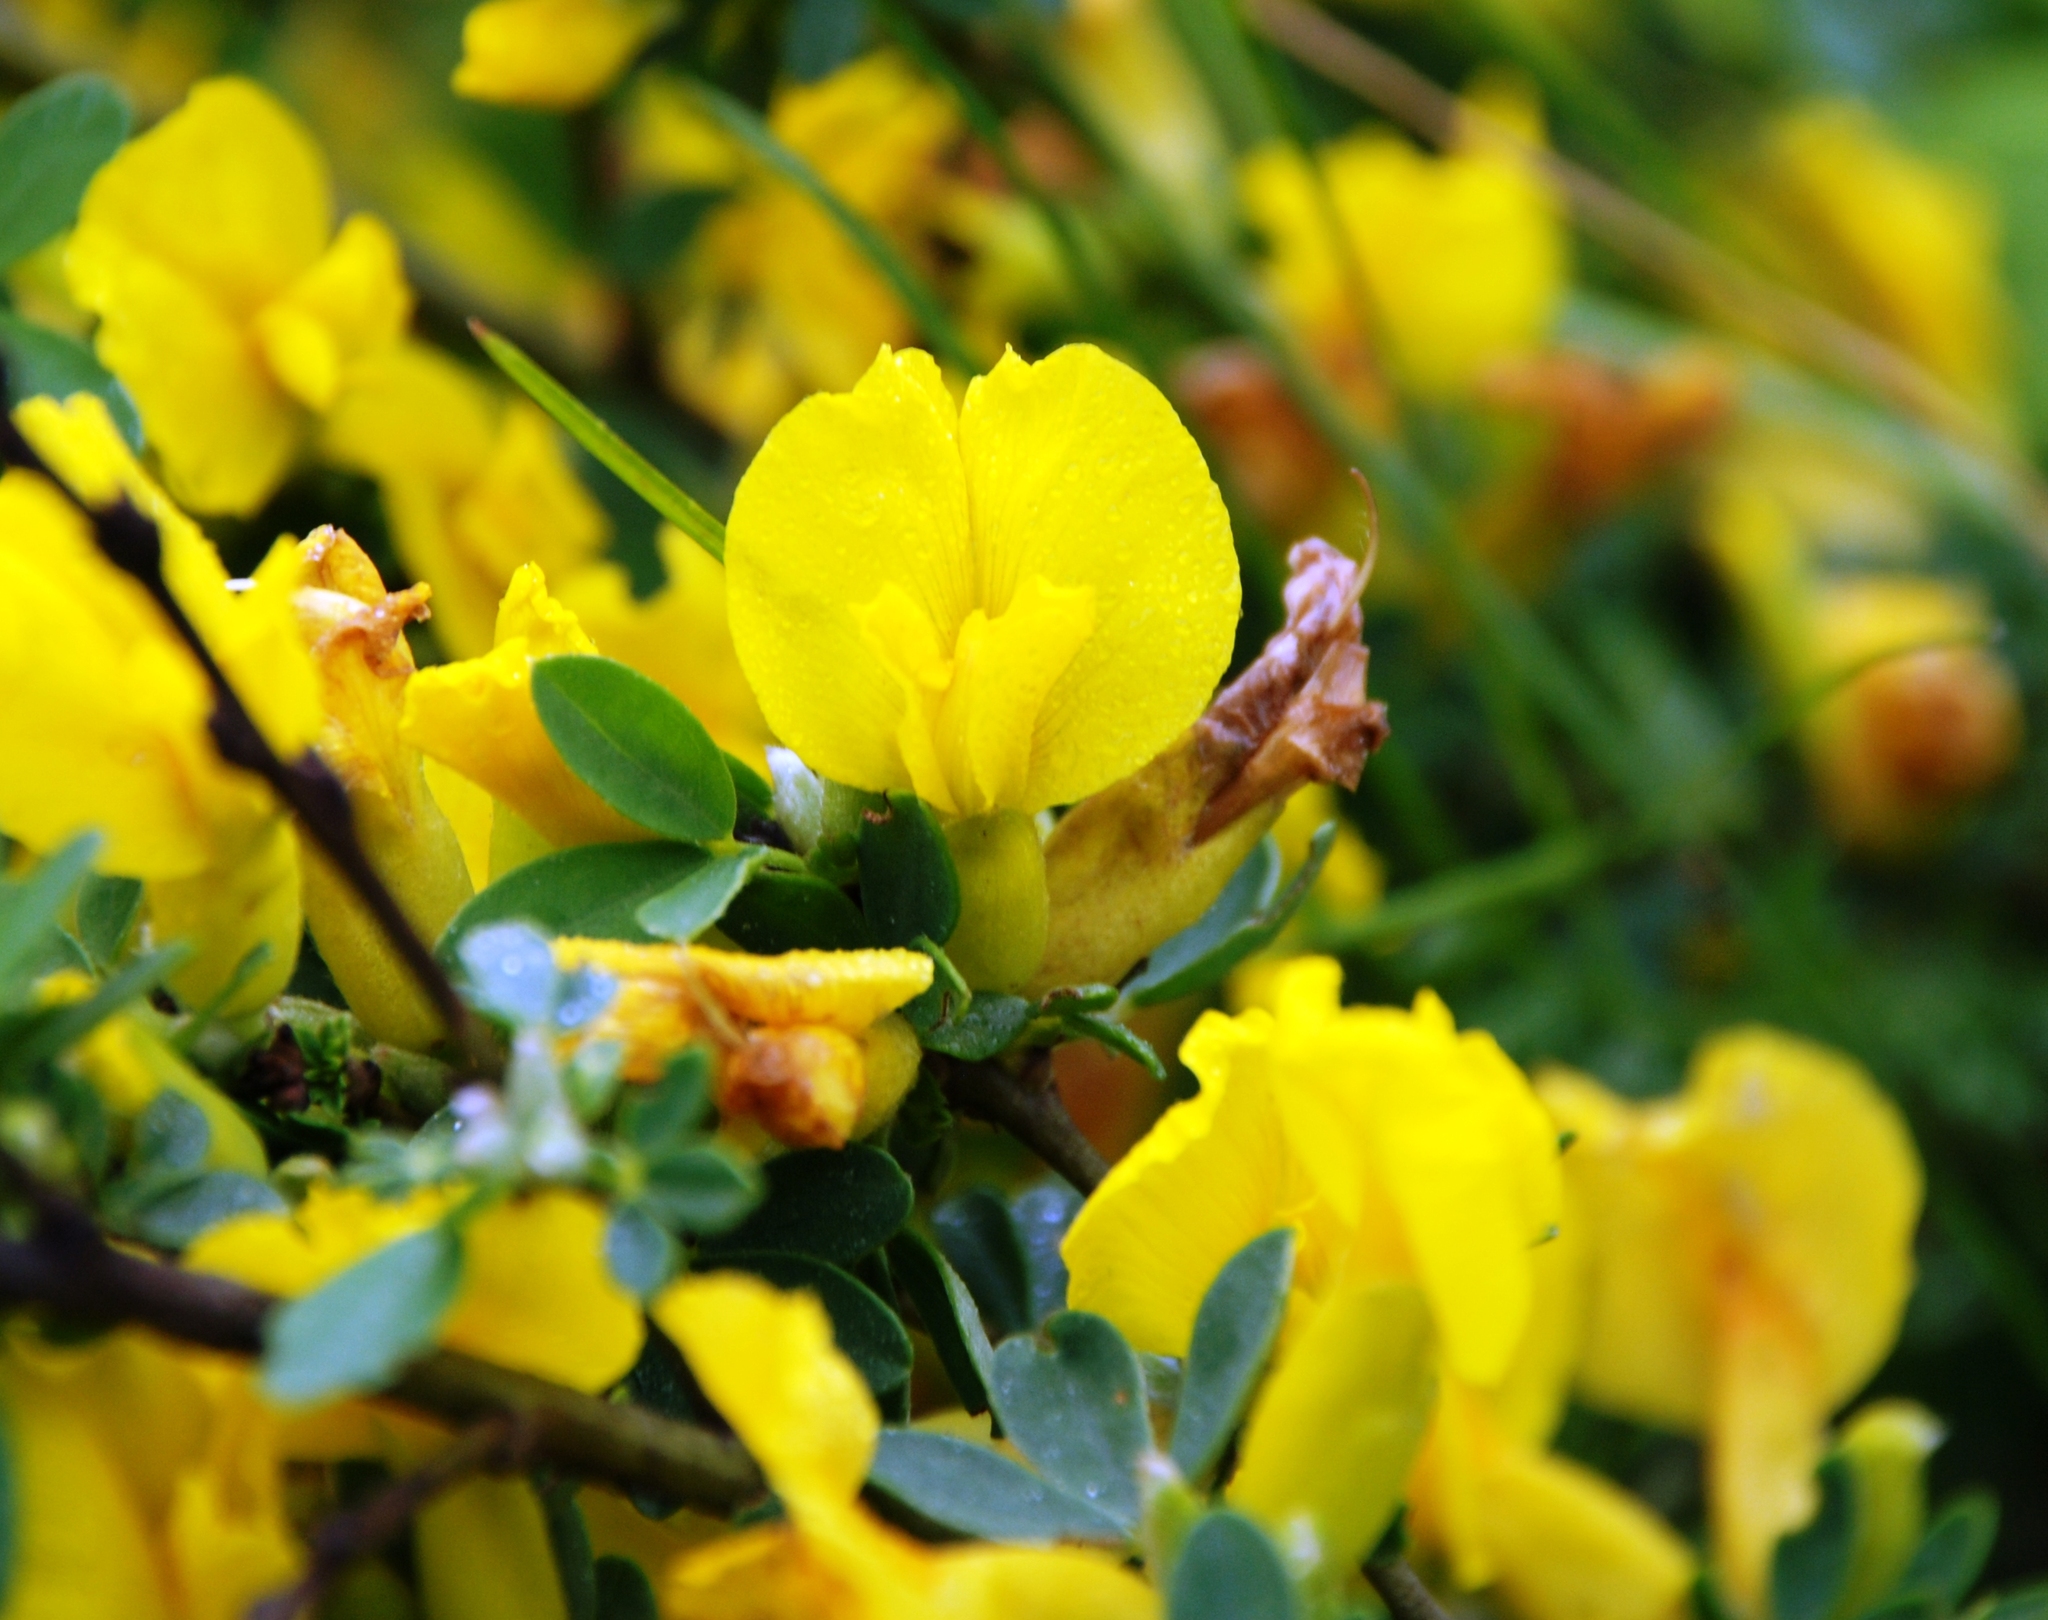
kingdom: Plantae
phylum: Tracheophyta
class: Magnoliopsida
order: Fabales
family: Fabaceae
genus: Chamaecytisus
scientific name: Chamaecytisus ruthenicus
